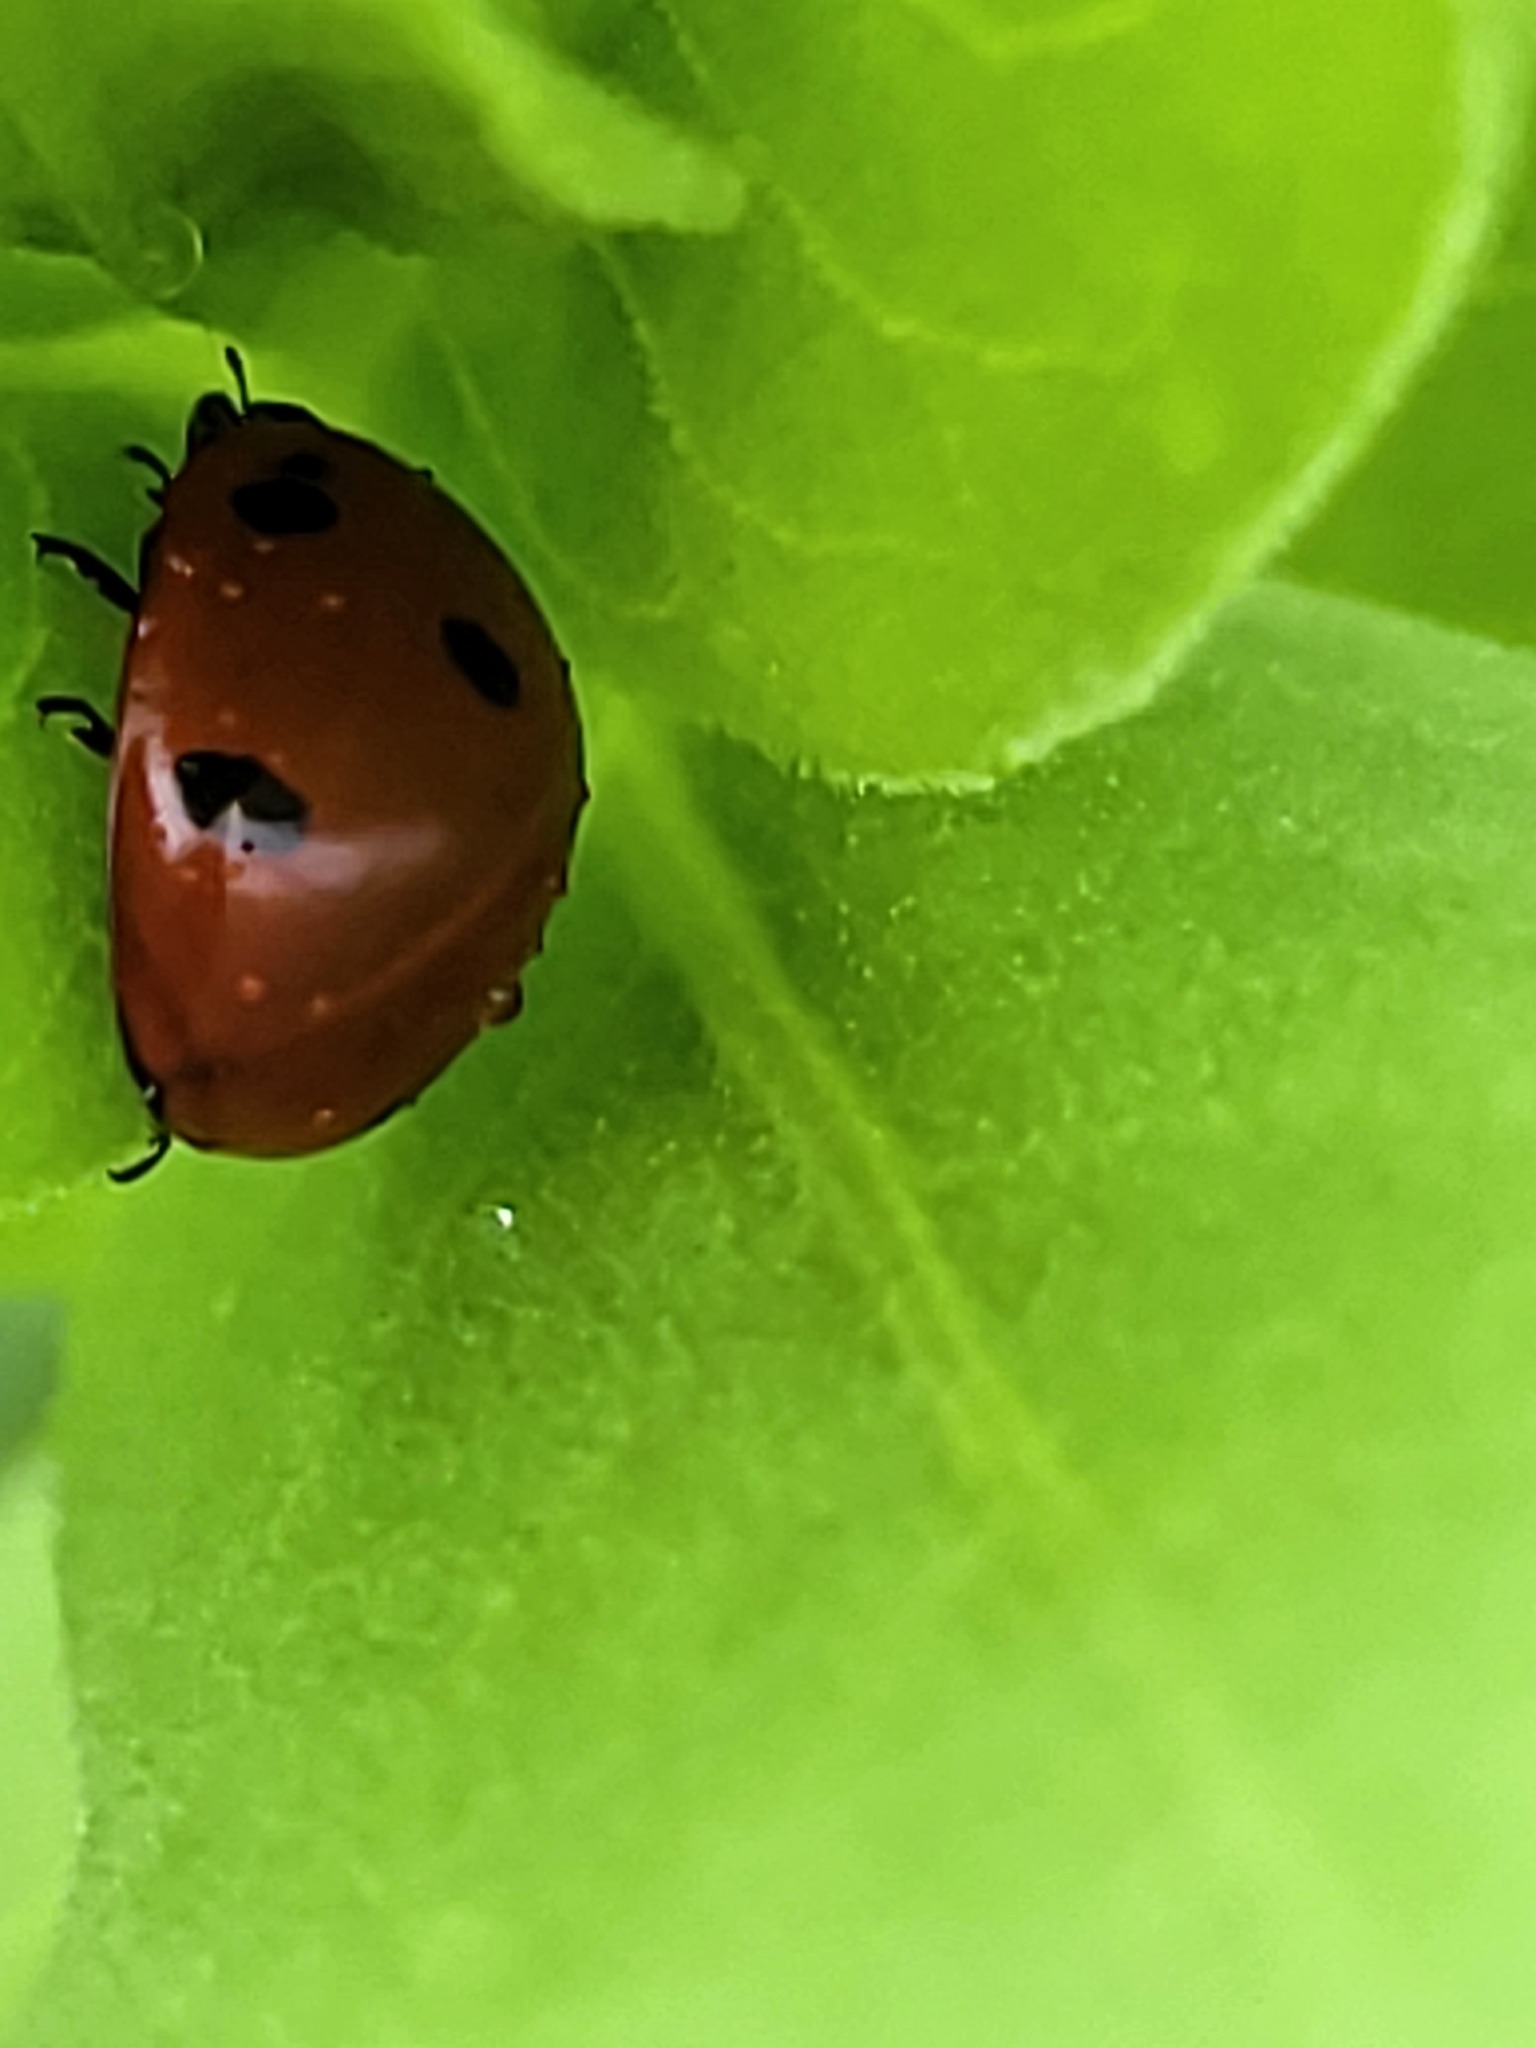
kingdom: Animalia
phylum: Arthropoda
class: Insecta
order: Coleoptera
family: Coccinellidae
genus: Coccinella
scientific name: Coccinella septempunctata
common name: Sevenspotted lady beetle
